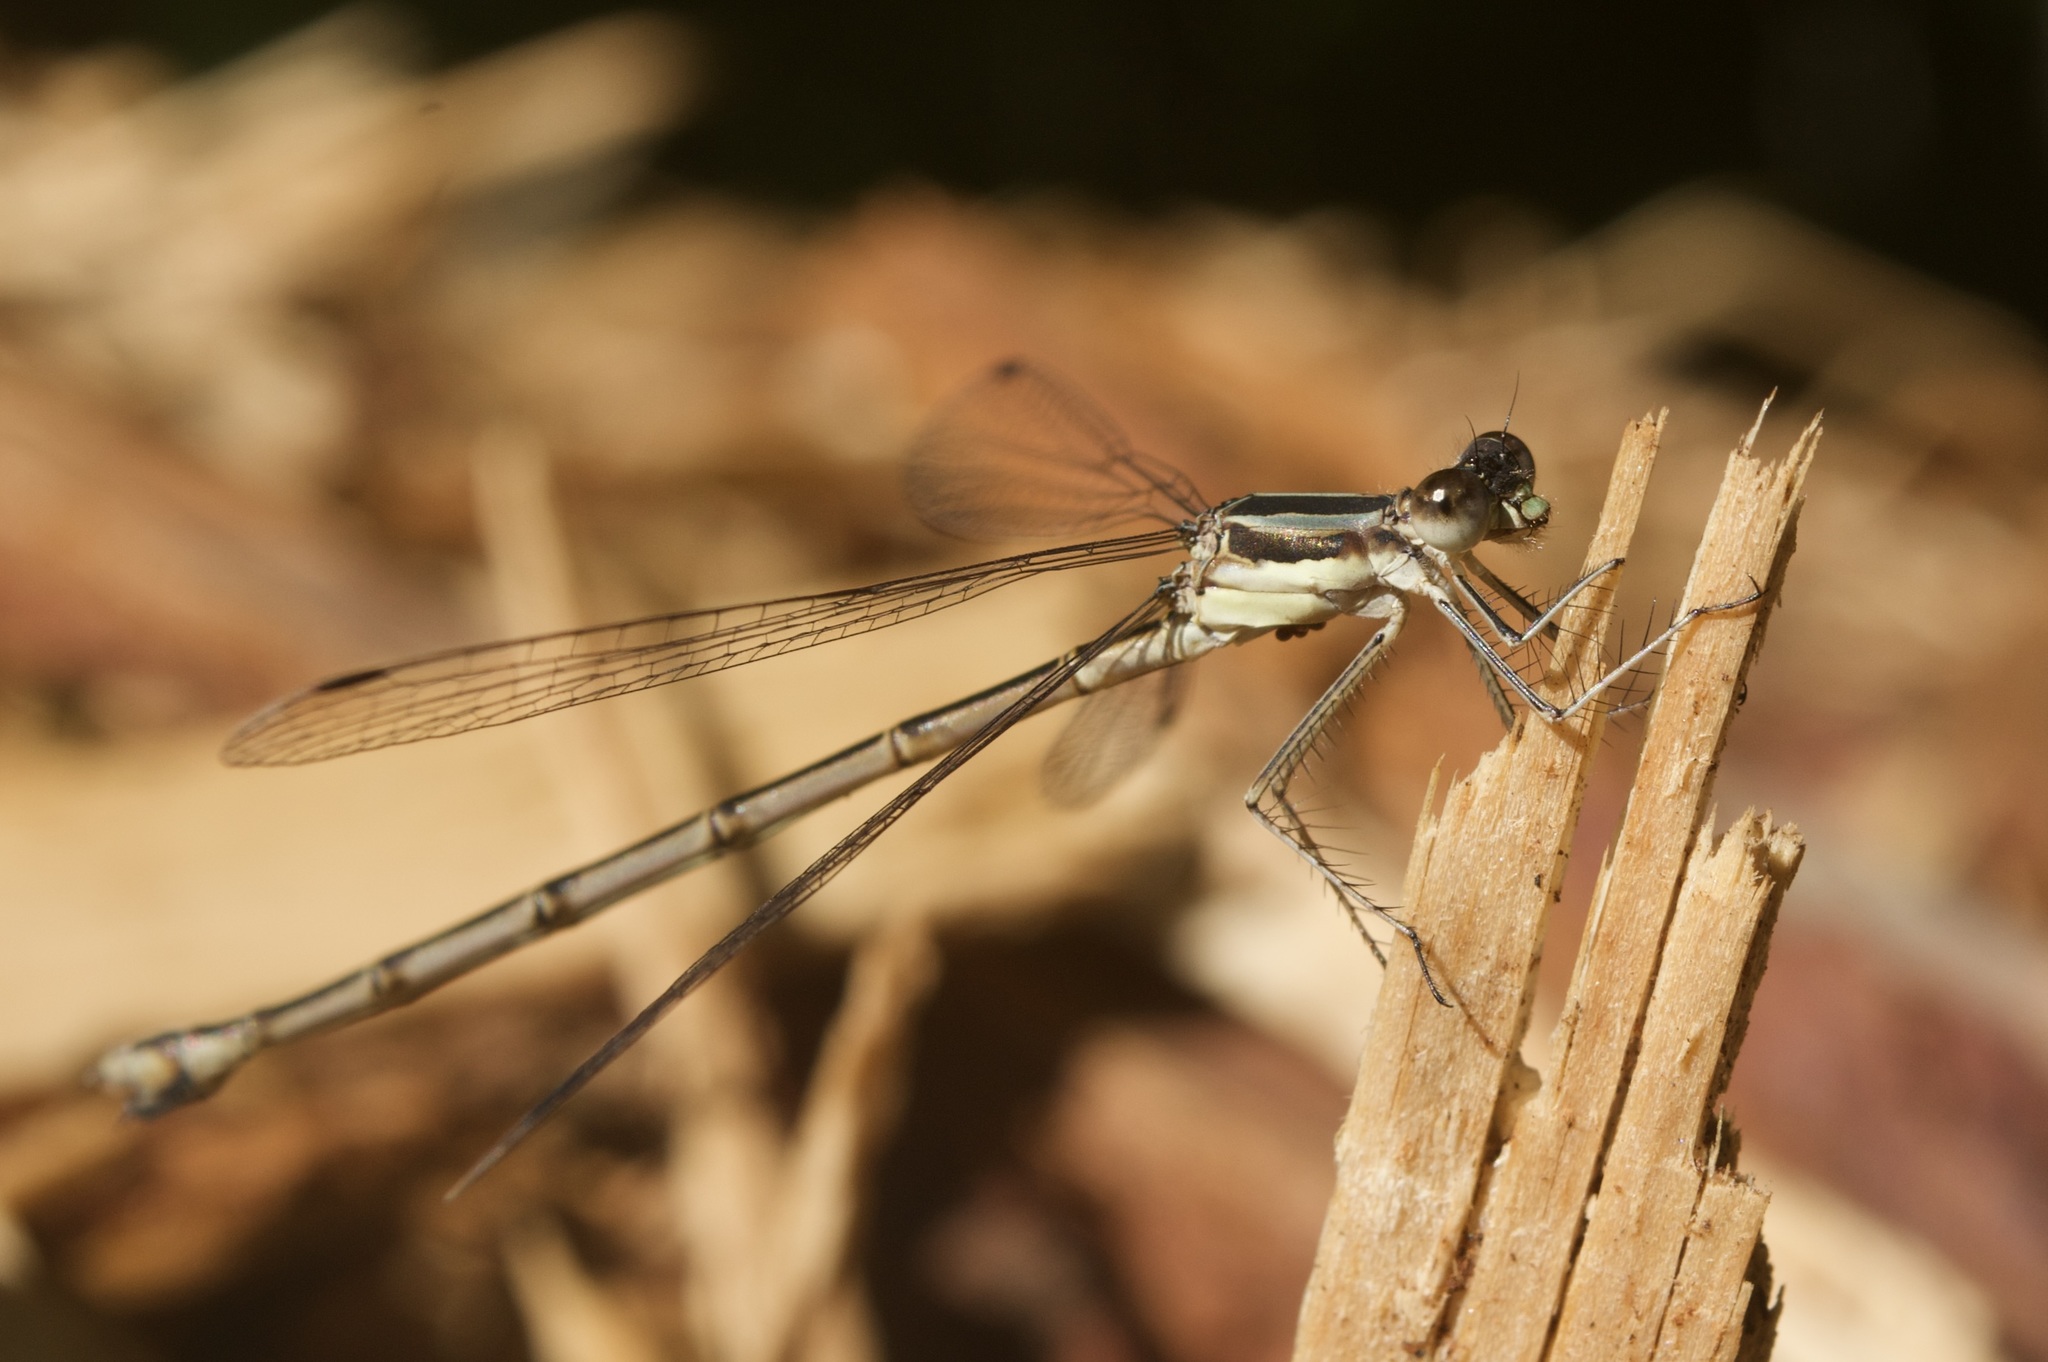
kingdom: Animalia
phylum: Arthropoda
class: Insecta
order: Odonata
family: Lestidae
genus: Lestes
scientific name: Lestes rectangularis
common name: Slender spreadwing
